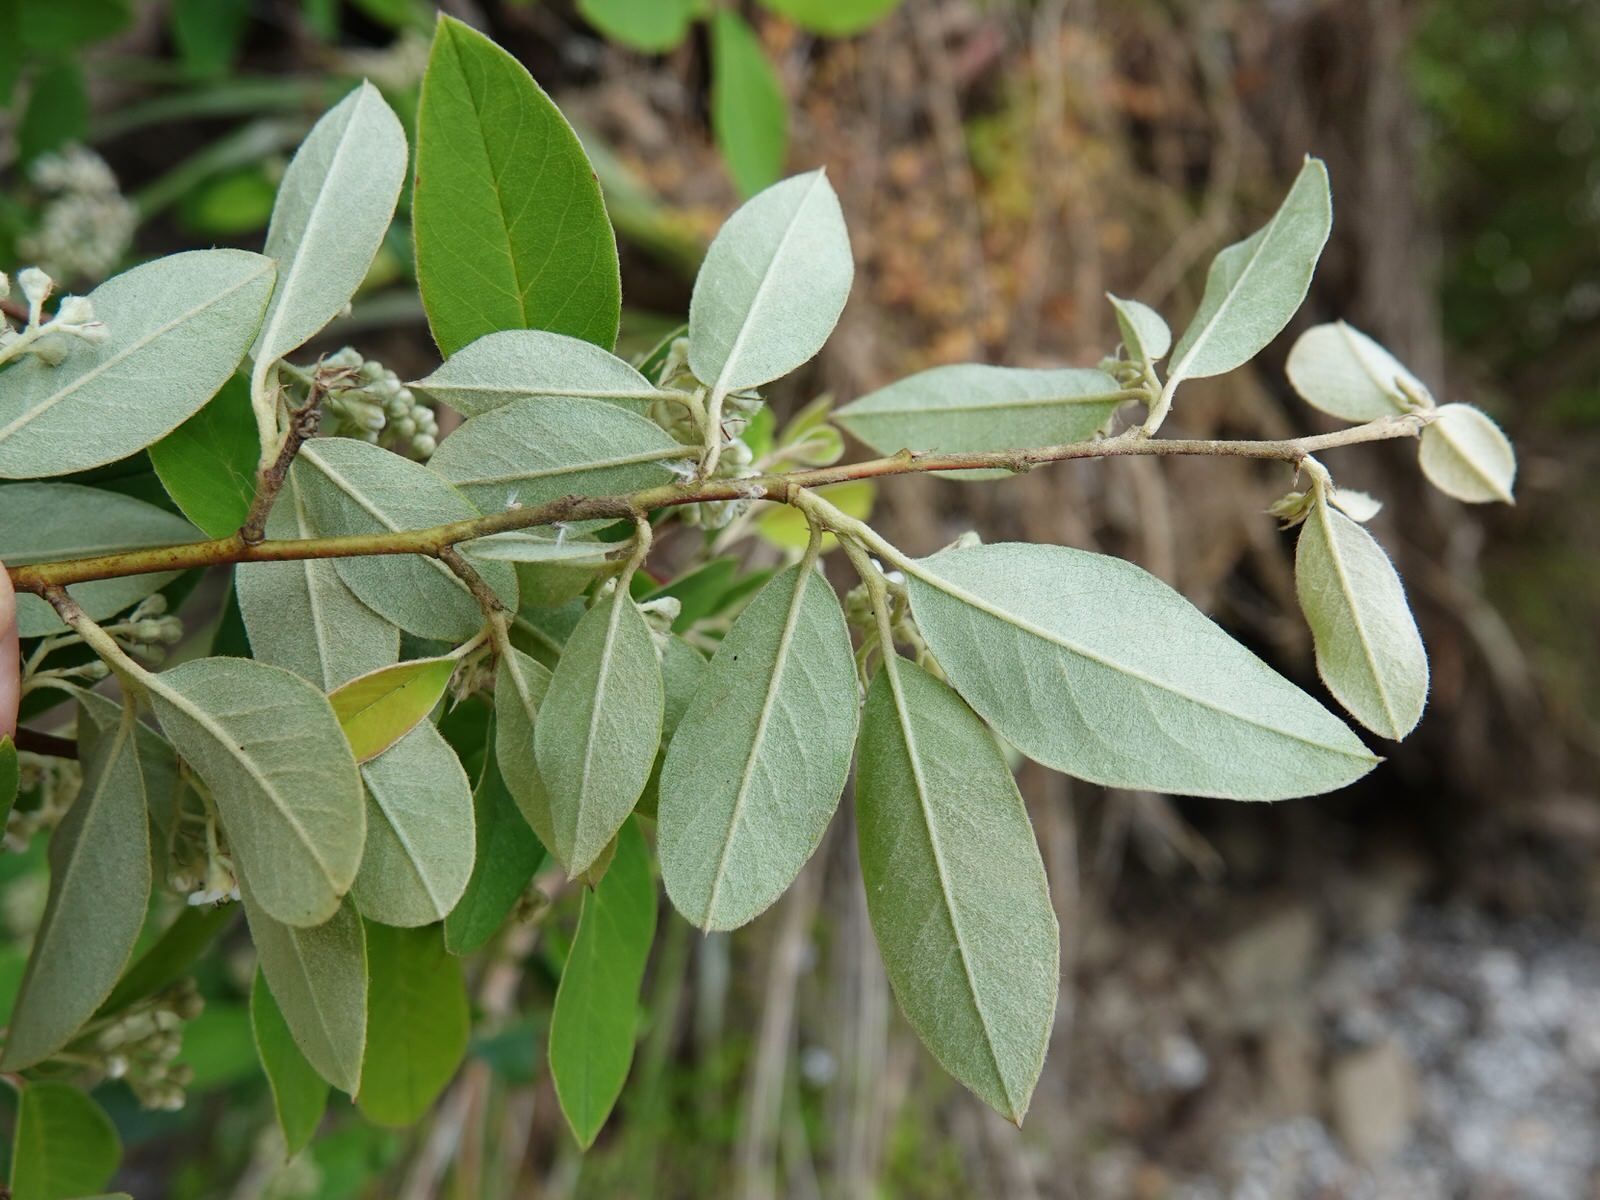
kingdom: Plantae
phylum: Tracheophyta
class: Magnoliopsida
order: Rosales
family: Rosaceae
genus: Cotoneaster
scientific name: Cotoneaster glaucophyllus
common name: Glaucous cotoneaster
